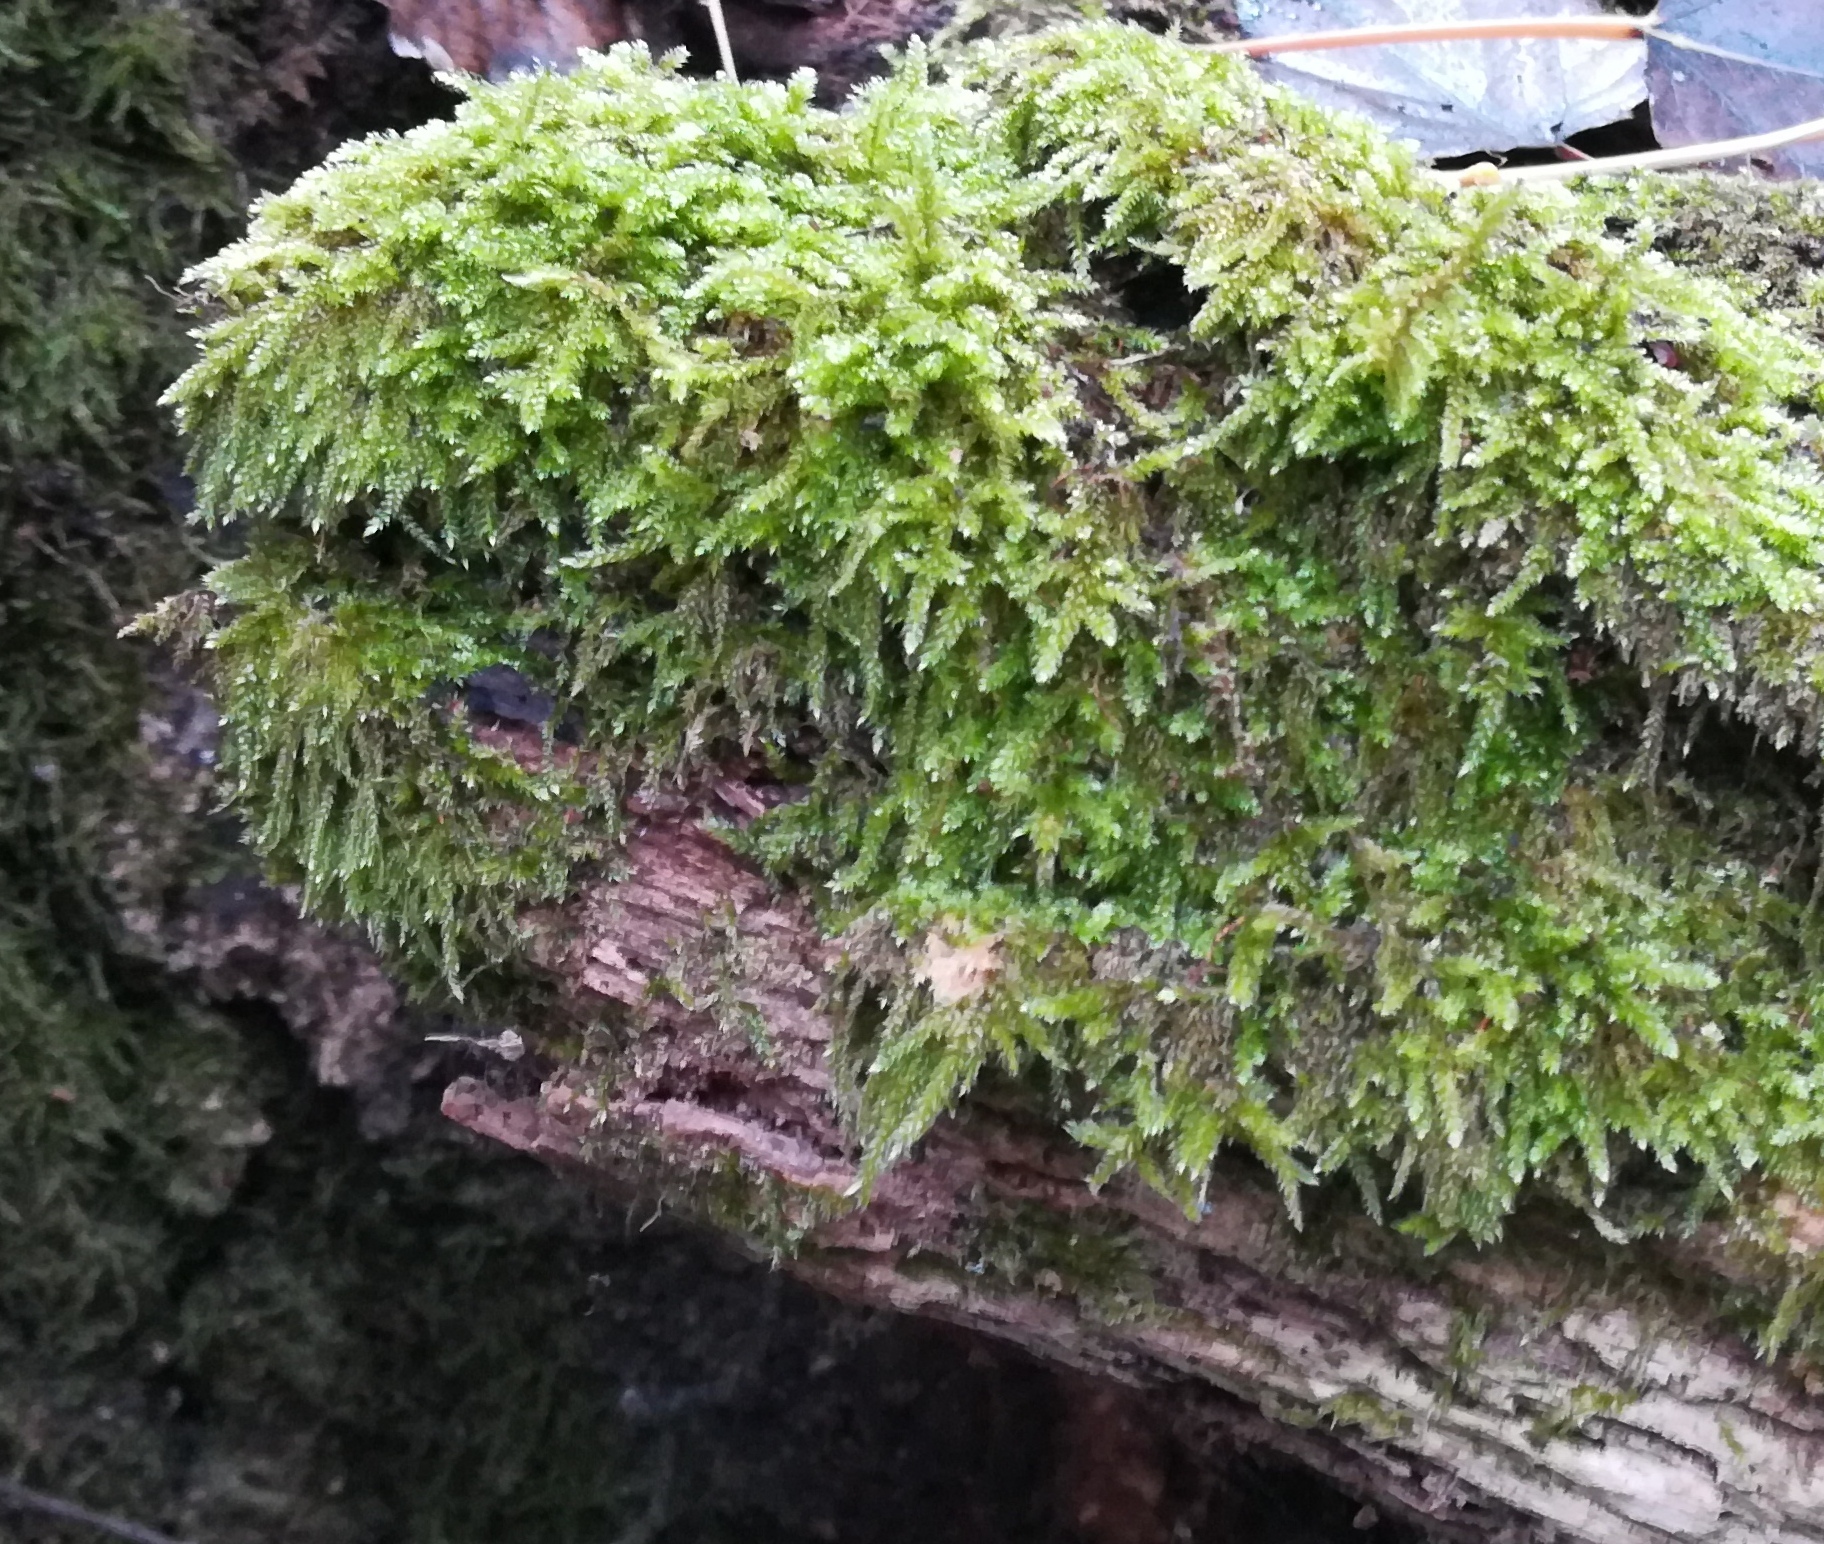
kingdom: Plantae
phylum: Bryophyta
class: Bryopsida
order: Hypnales
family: Hypnaceae
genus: Hypnum
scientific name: Hypnum cupressiforme
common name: Cypress-leaved plait-moss
